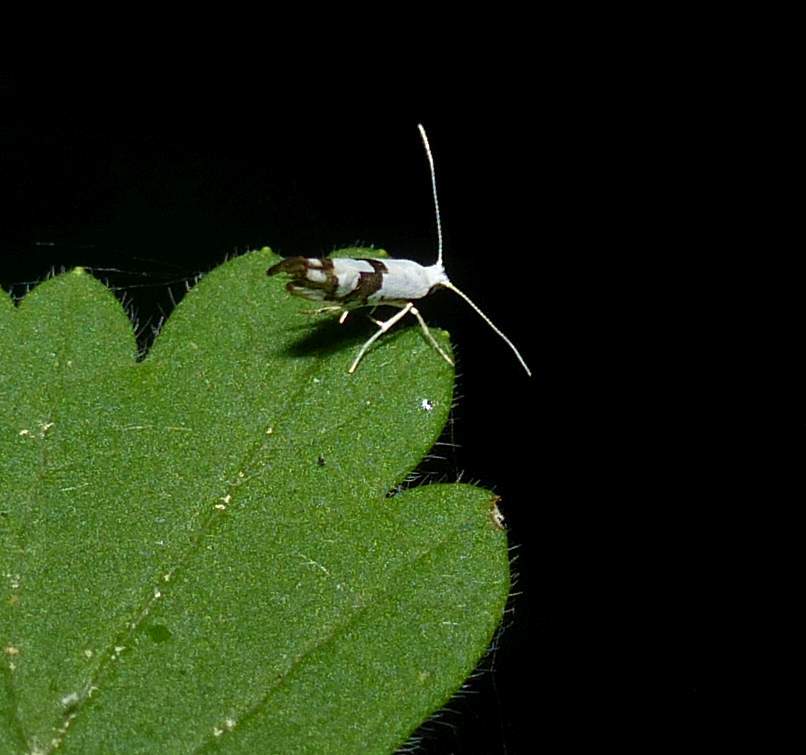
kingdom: Animalia
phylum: Arthropoda
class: Insecta
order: Lepidoptera
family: Argyresthiidae
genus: Argyresthia
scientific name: Argyresthia oreasella
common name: Cherry shoot borer moth
